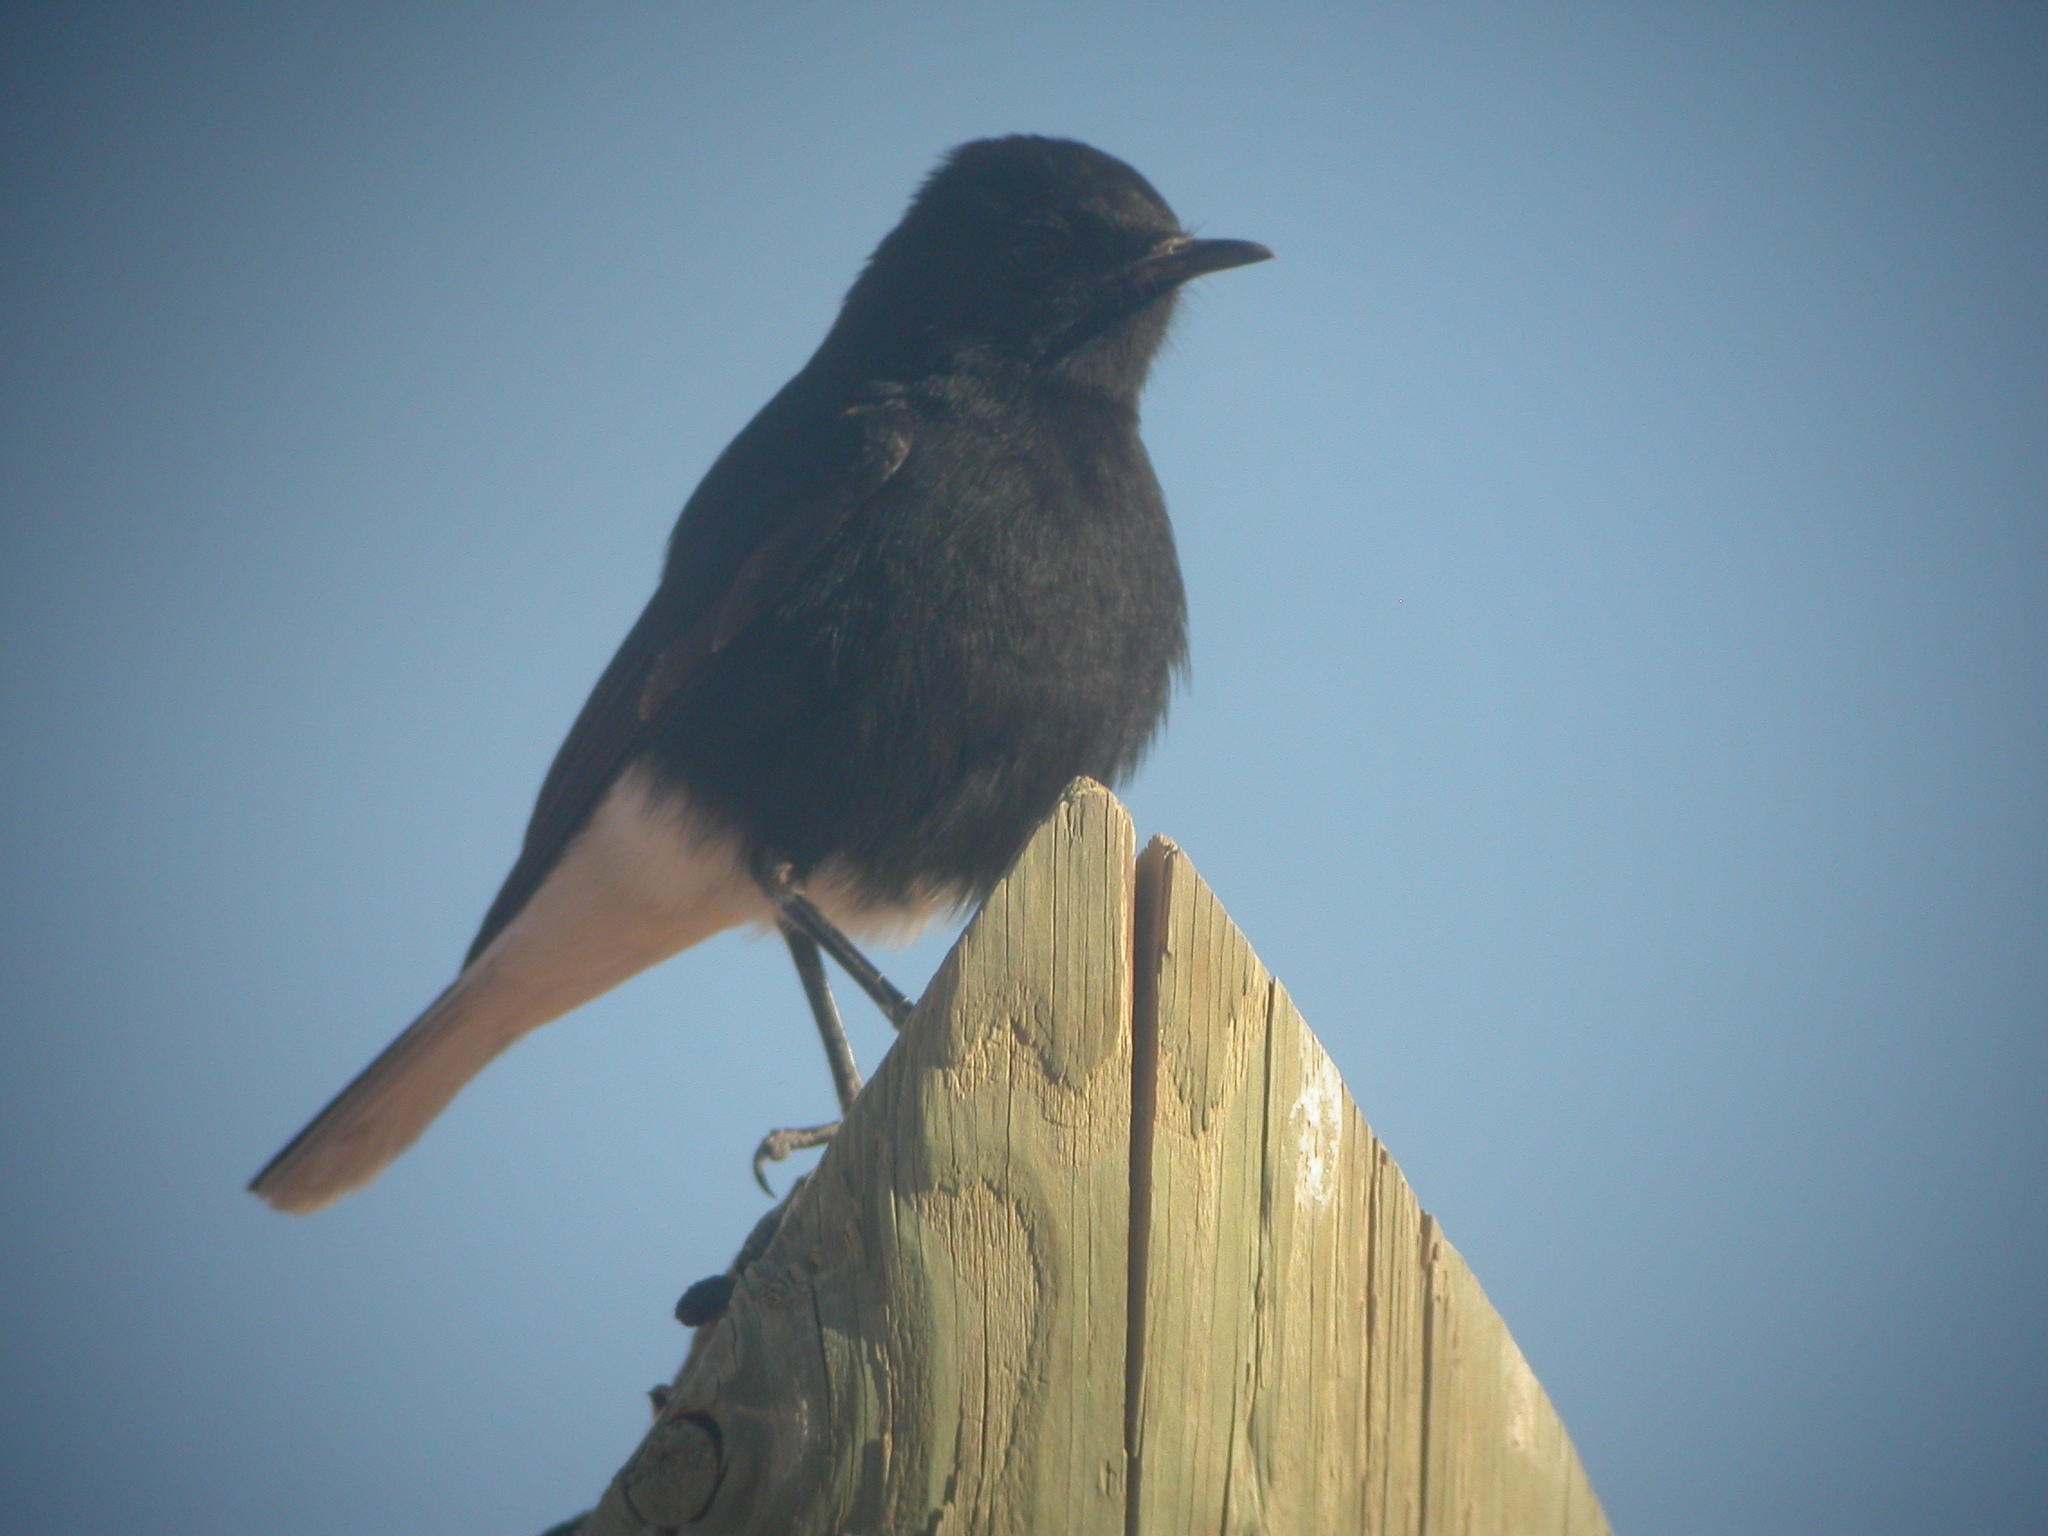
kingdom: Animalia
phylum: Chordata
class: Aves
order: Passeriformes
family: Muscicapidae
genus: Oenanthe
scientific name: Oenanthe leucopyga
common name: White-crowned wheatear
